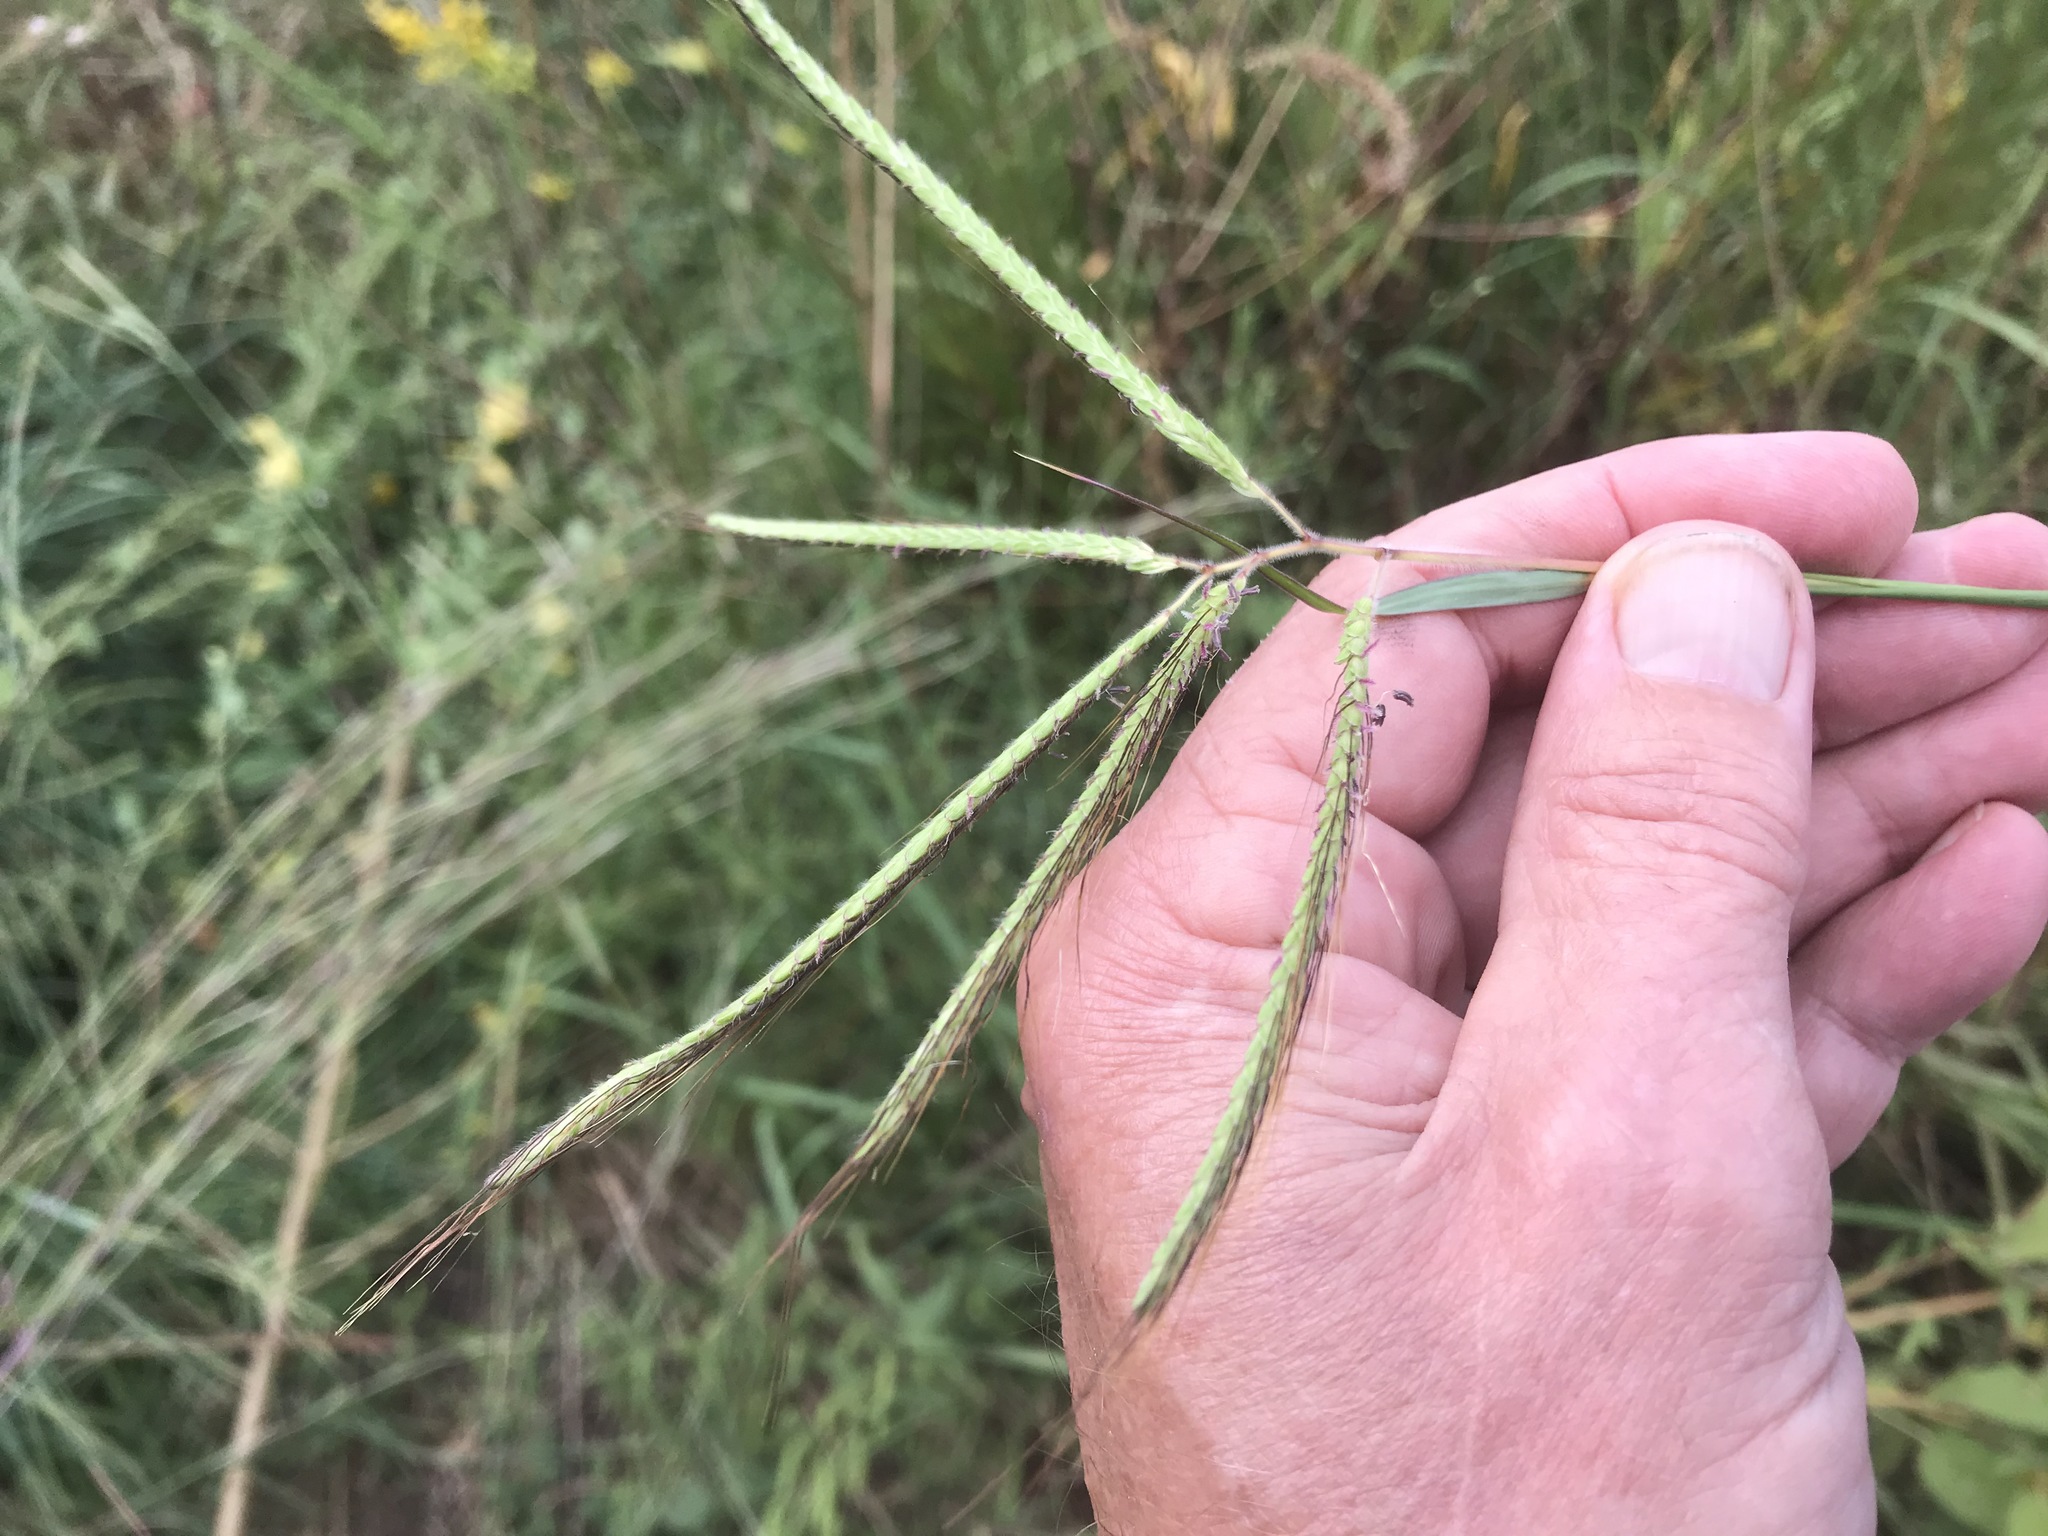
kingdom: Plantae
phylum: Tracheophyta
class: Liliopsida
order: Poales
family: Poaceae
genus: Dichanthium
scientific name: Dichanthium aristatum
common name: Angleton bluestem
